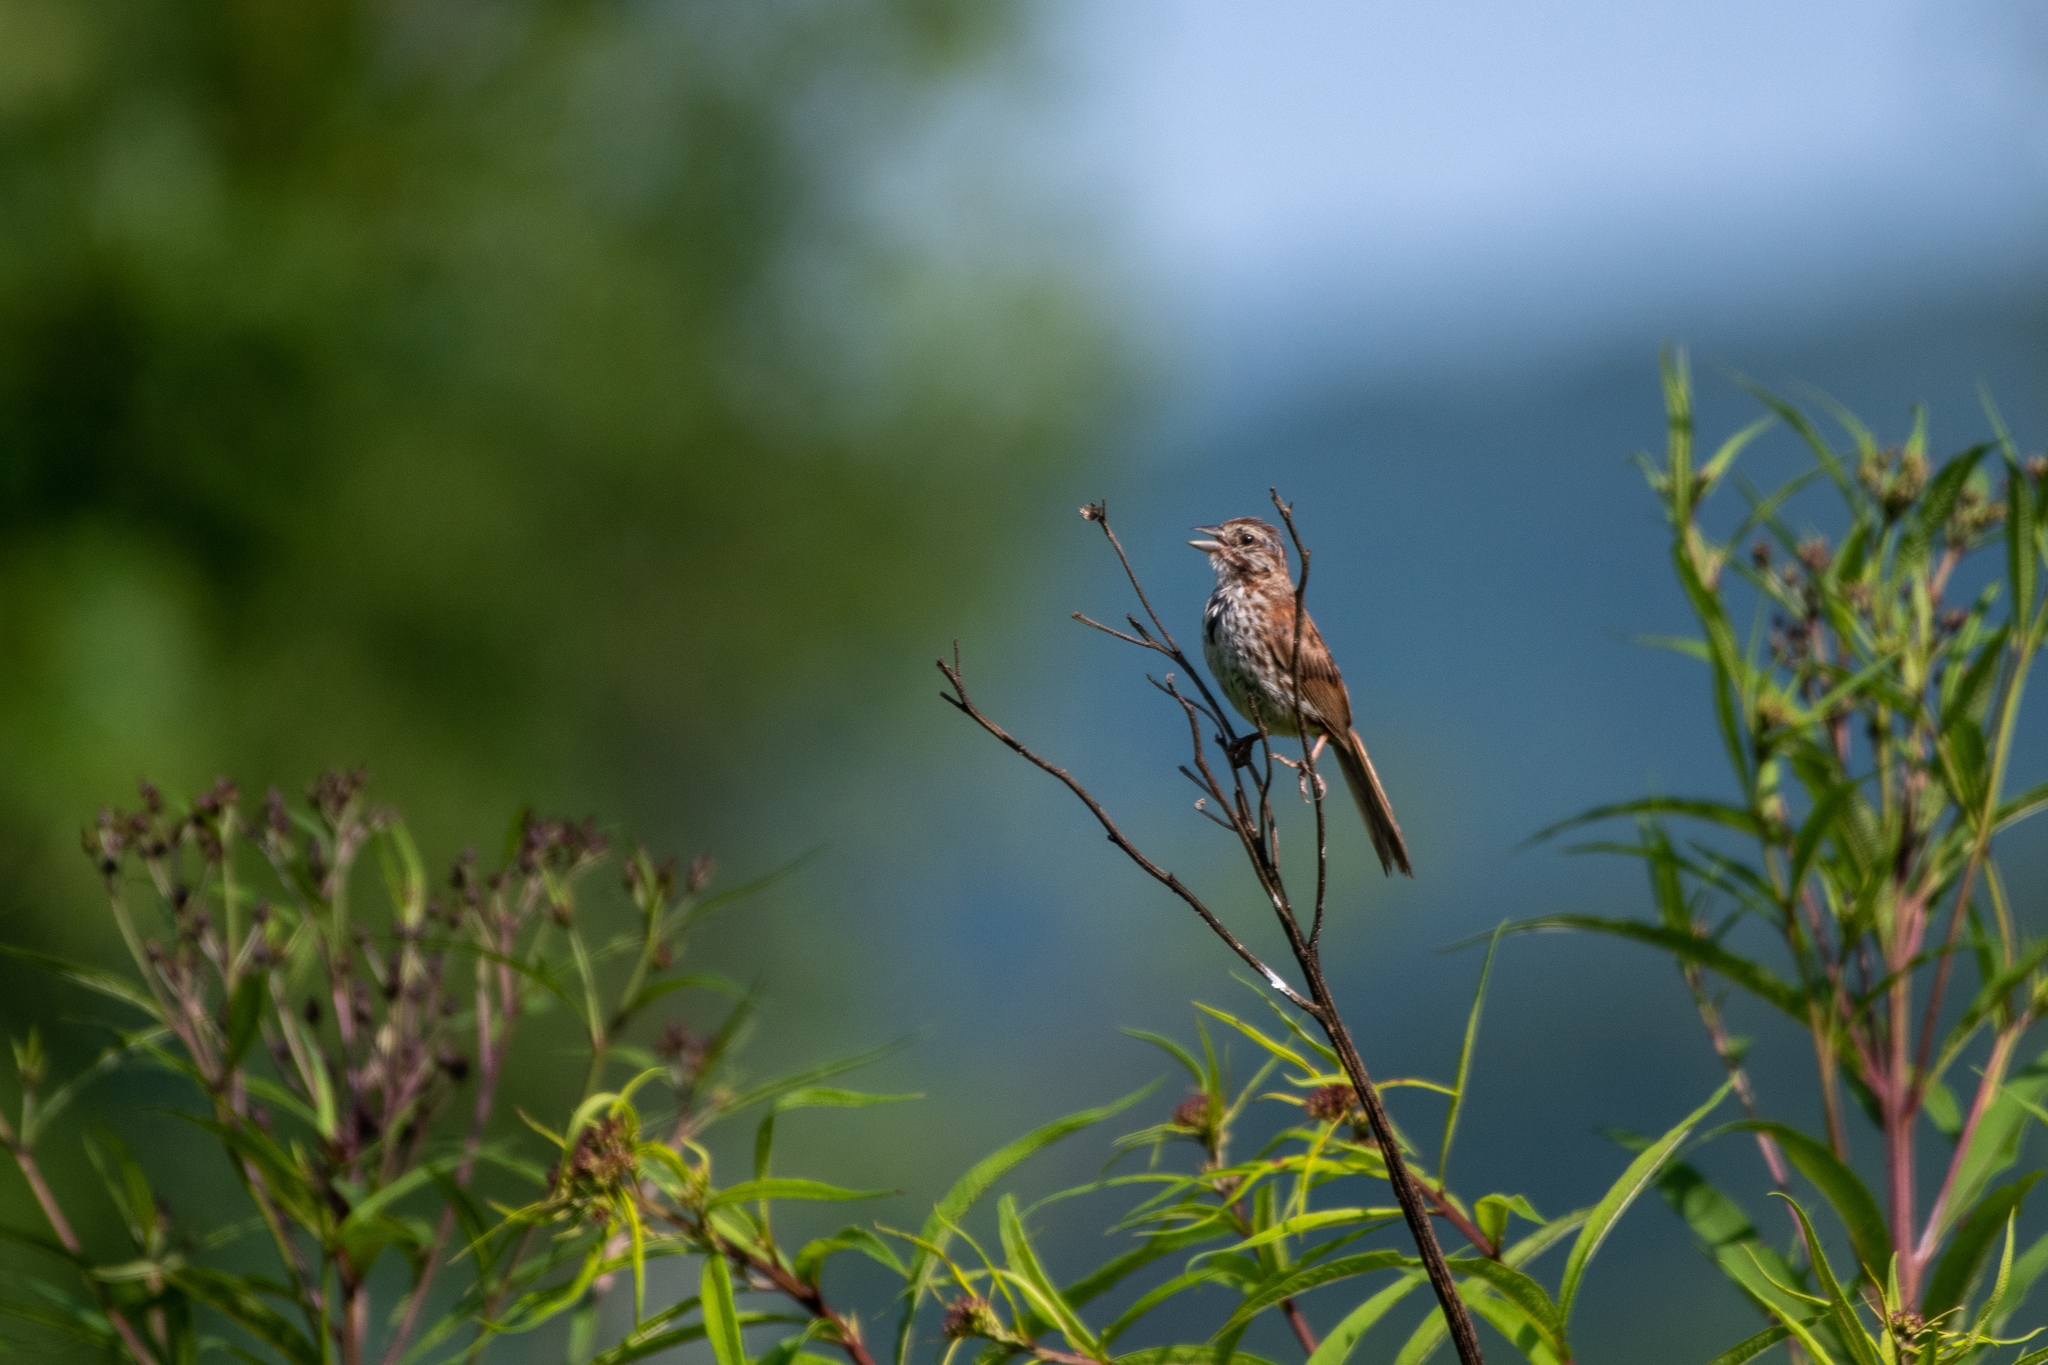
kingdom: Animalia
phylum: Chordata
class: Aves
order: Passeriformes
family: Passerellidae
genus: Melospiza
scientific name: Melospiza melodia
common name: Song sparrow
